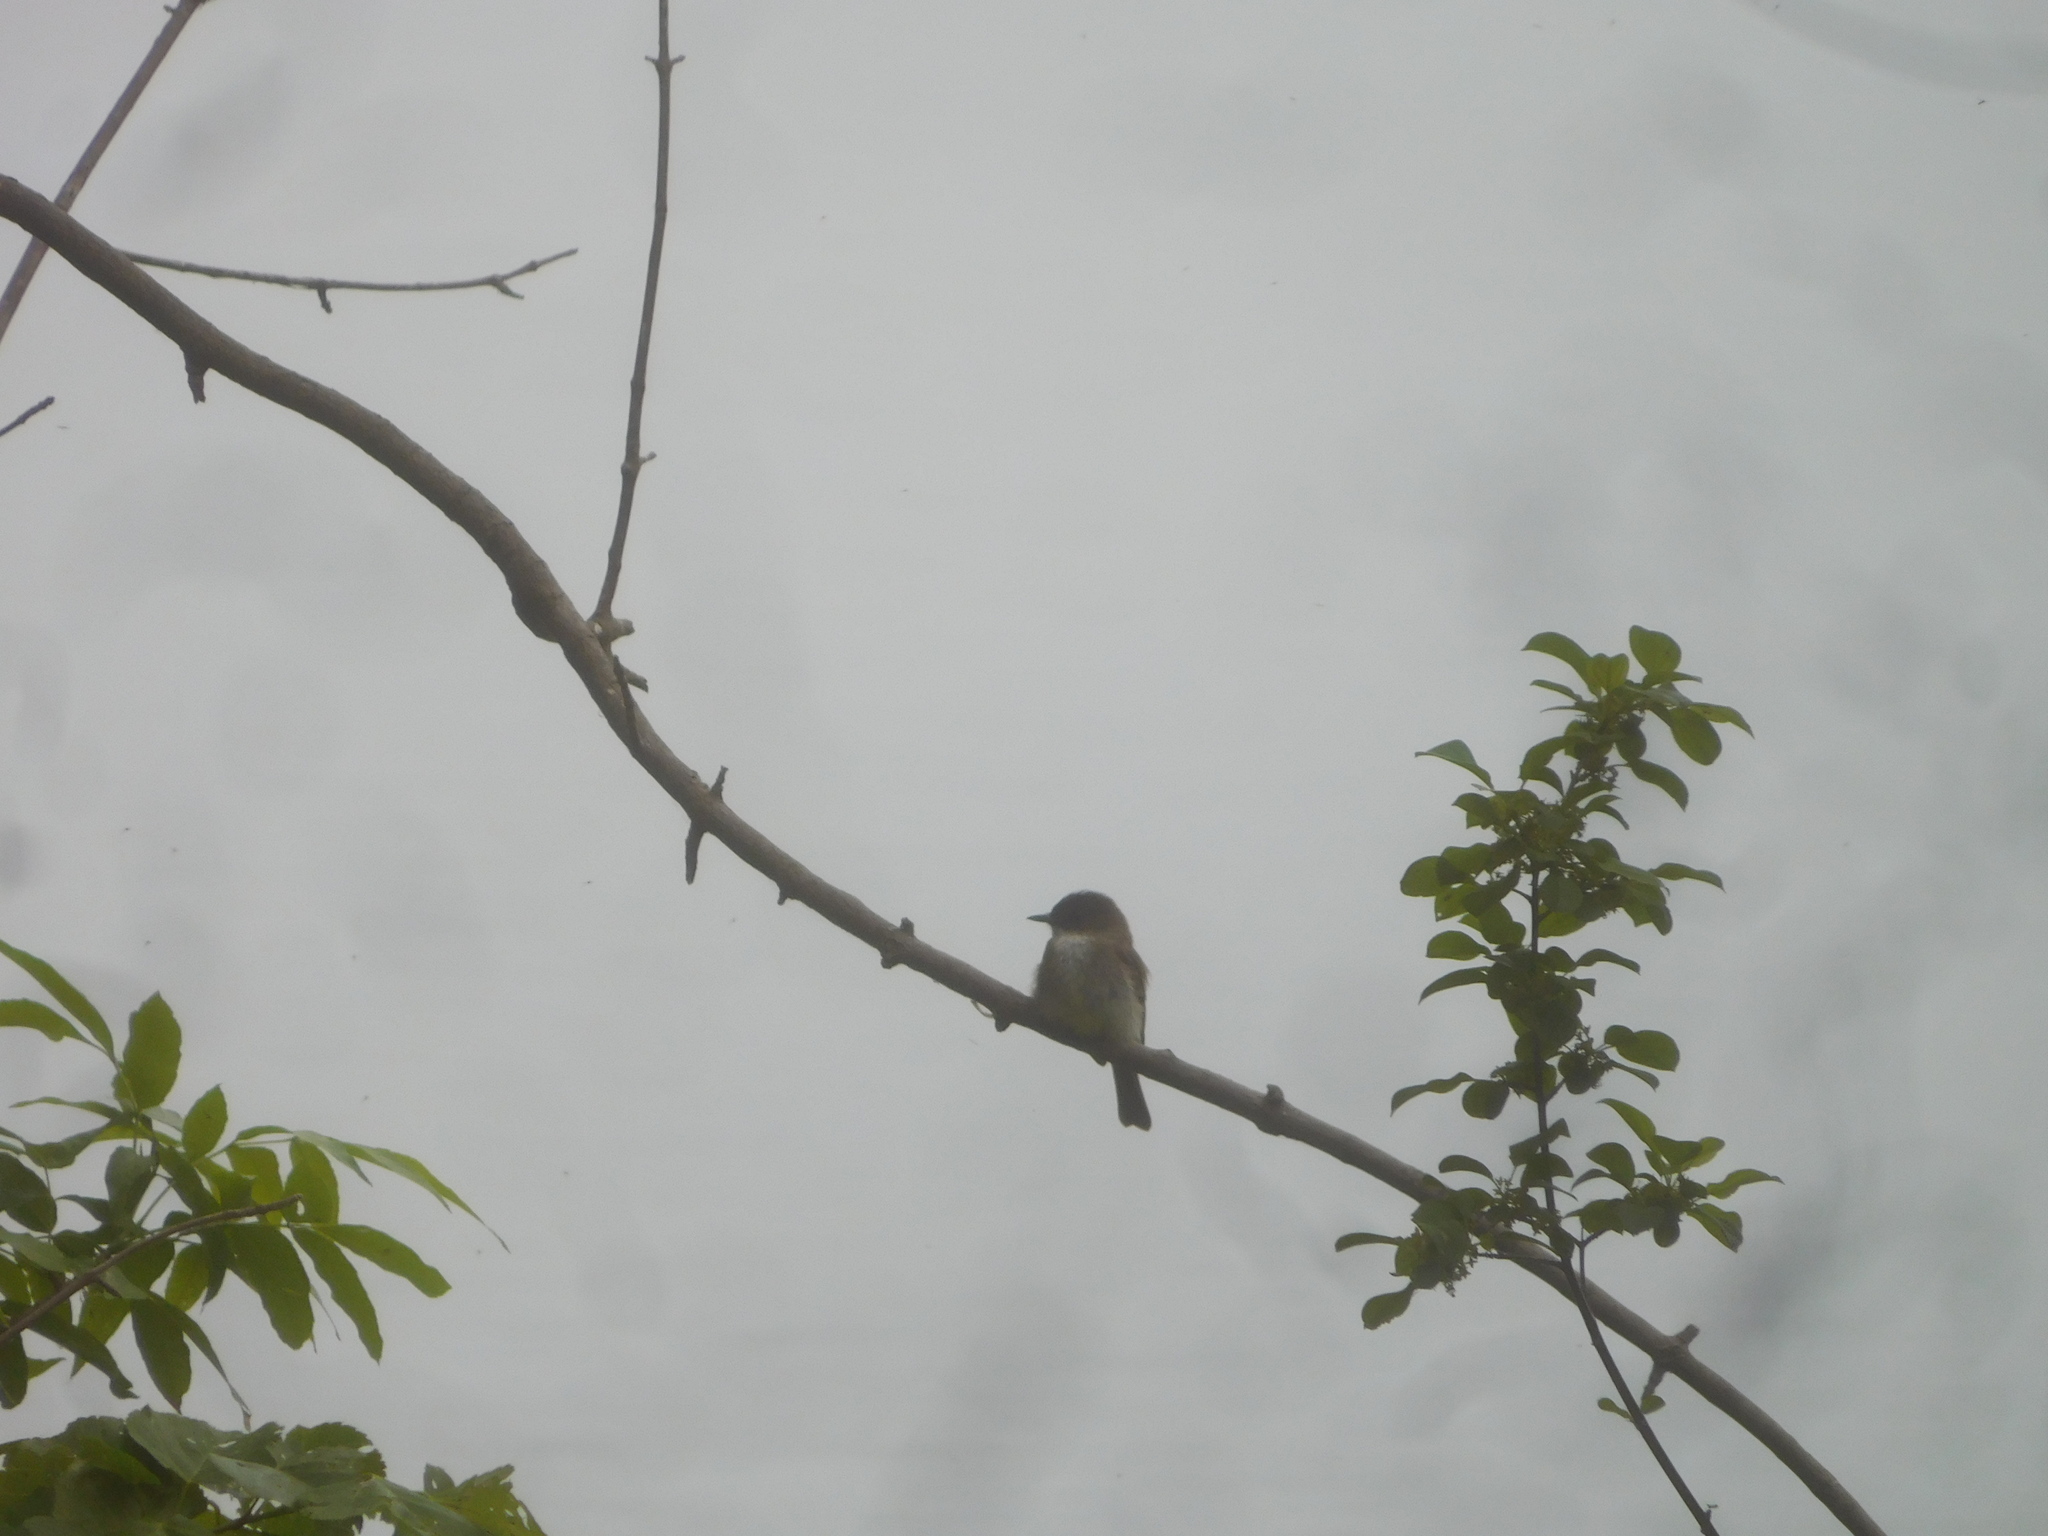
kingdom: Animalia
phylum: Chordata
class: Aves
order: Passeriformes
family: Tyrannidae
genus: Sayornis
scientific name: Sayornis phoebe
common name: Eastern phoebe
